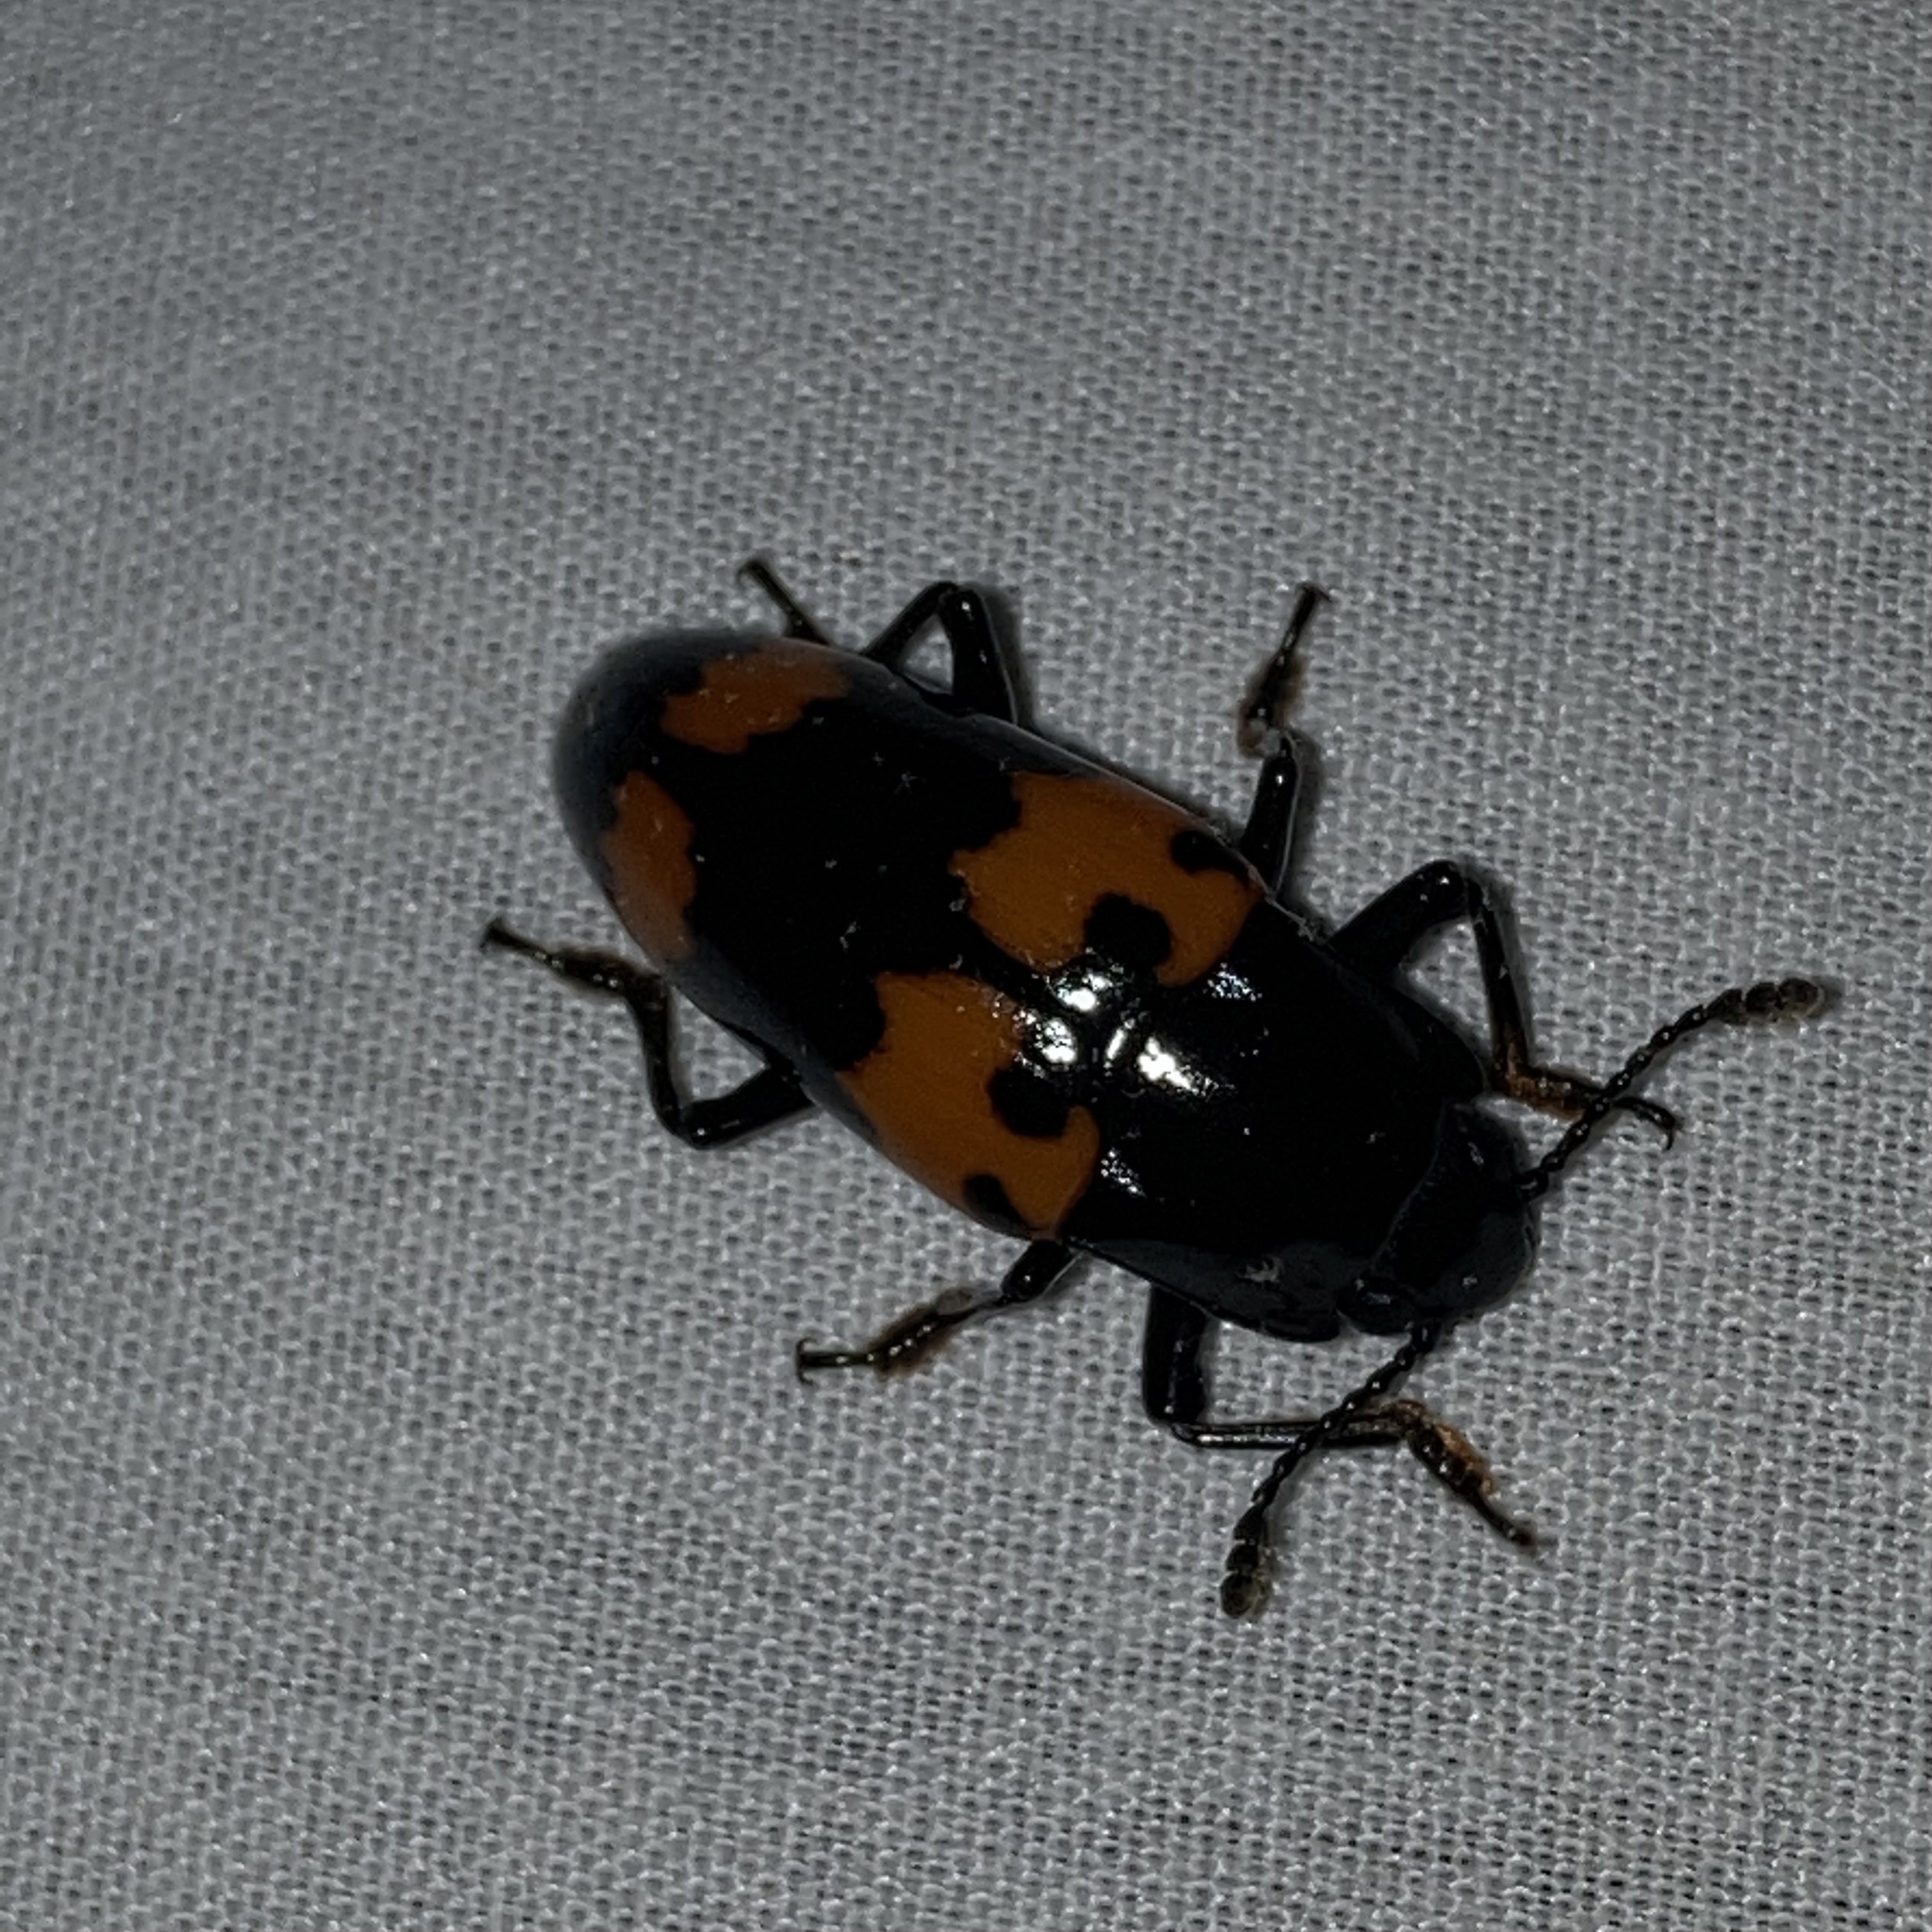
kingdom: Animalia
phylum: Arthropoda
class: Insecta
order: Coleoptera
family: Erotylidae
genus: Megalodacne
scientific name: Megalodacne heros
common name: Pleasing fungus beetle
